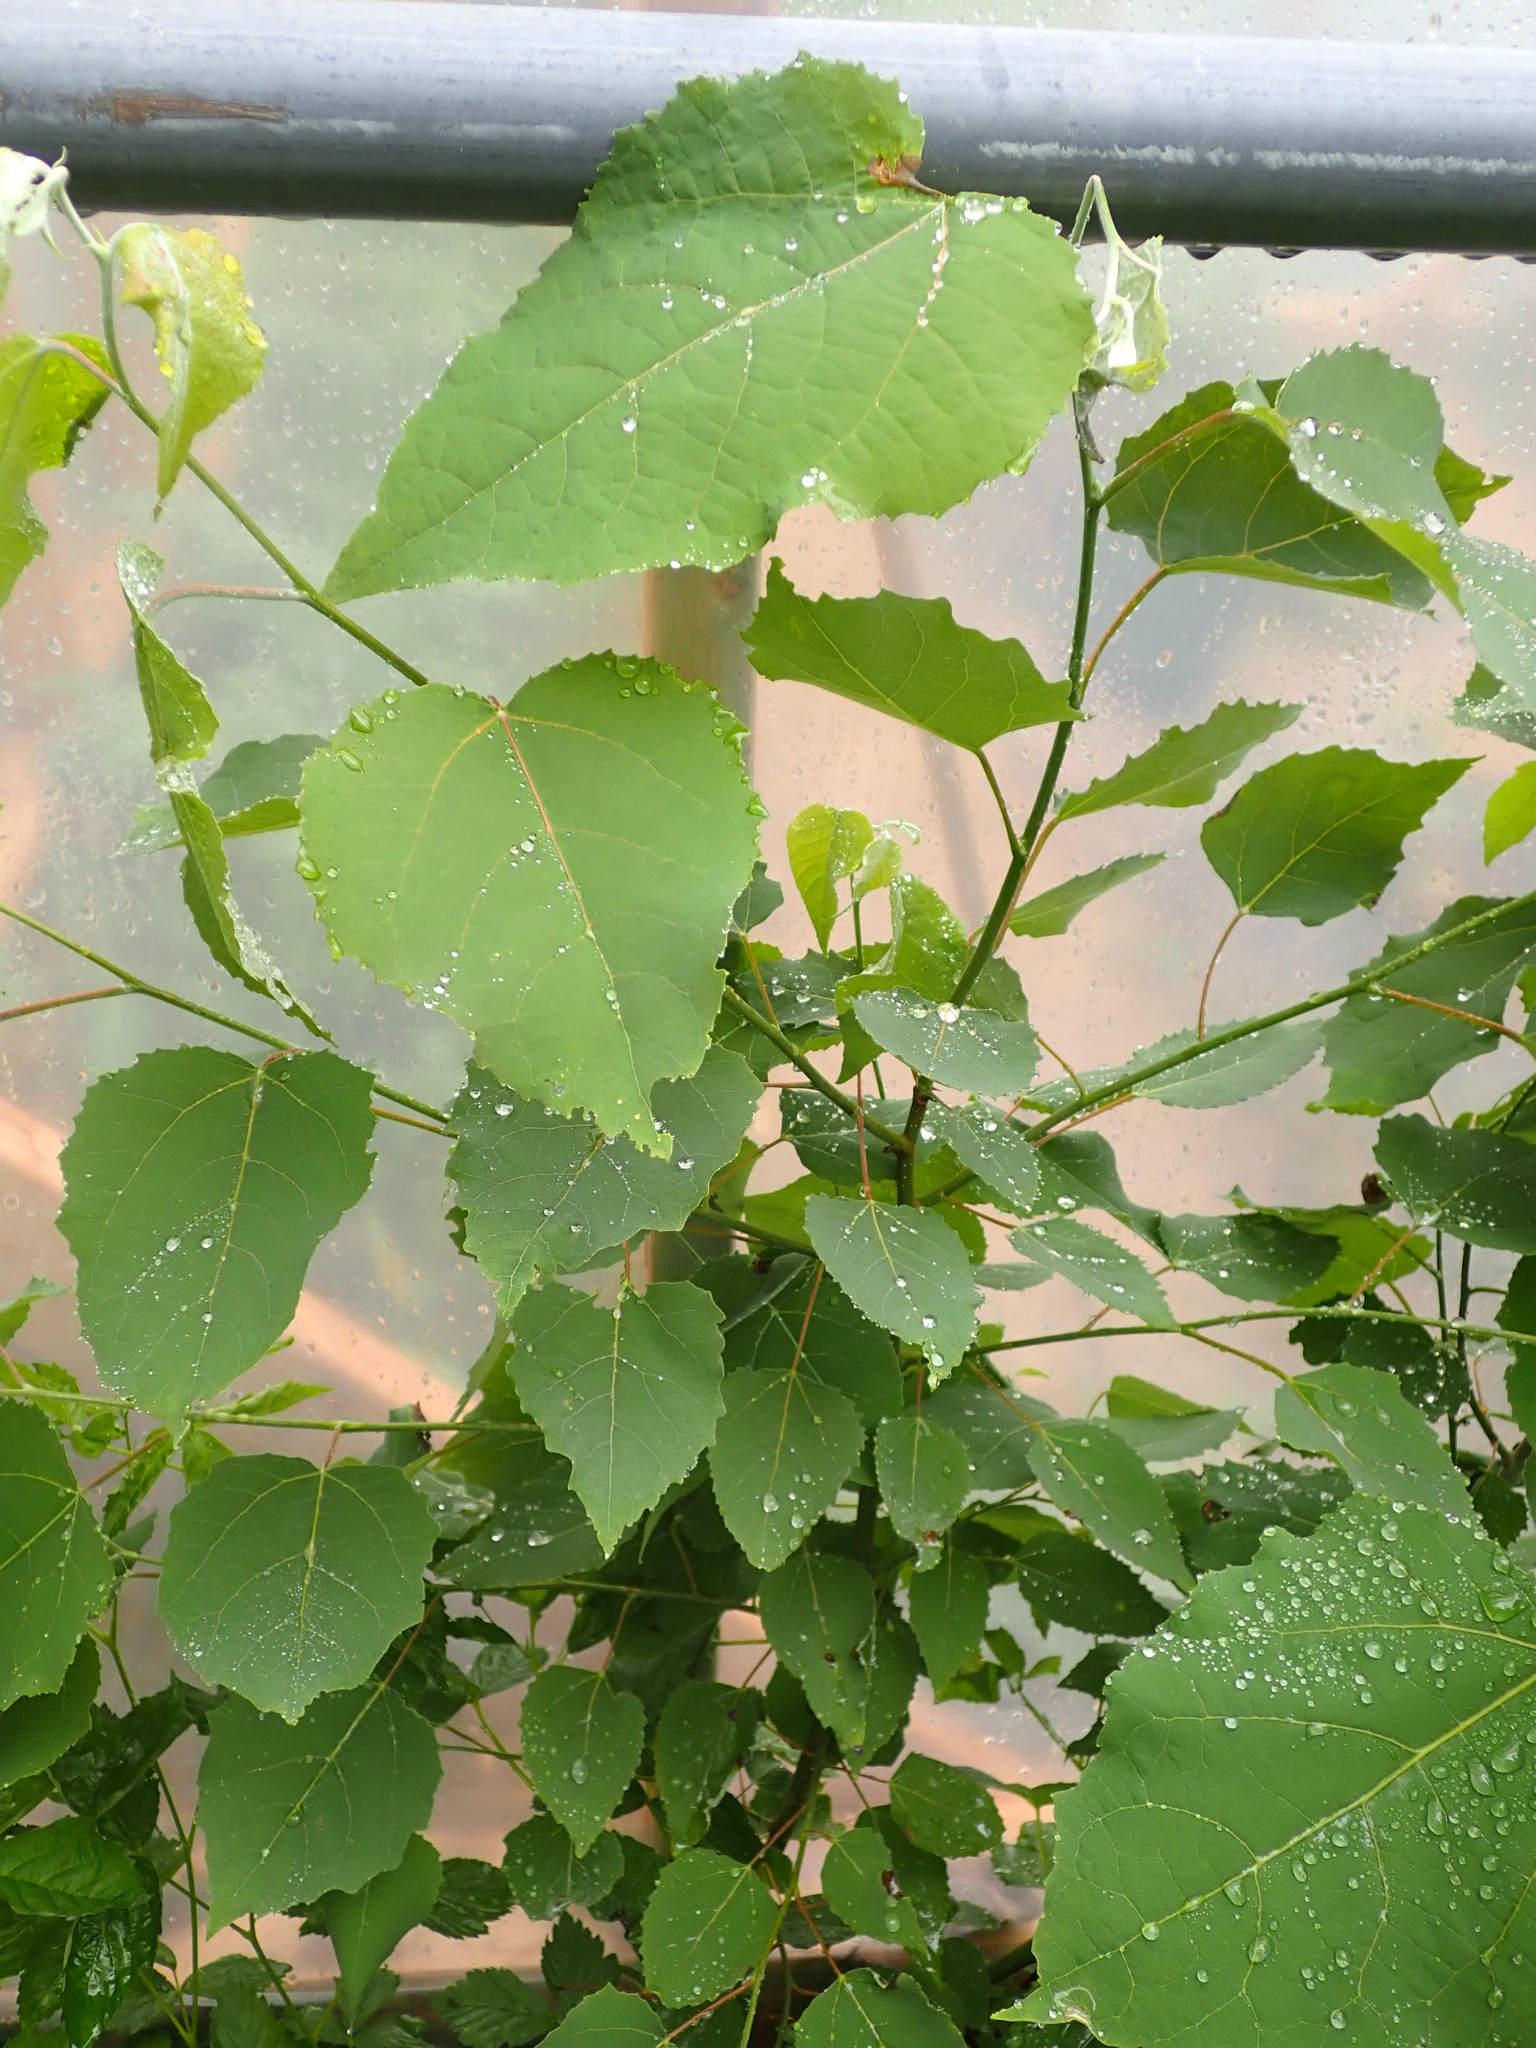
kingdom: Plantae
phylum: Tracheophyta
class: Magnoliopsida
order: Malpighiales
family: Salicaceae
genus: Populus
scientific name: Populus grandidentata
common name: Bigtooth aspen
